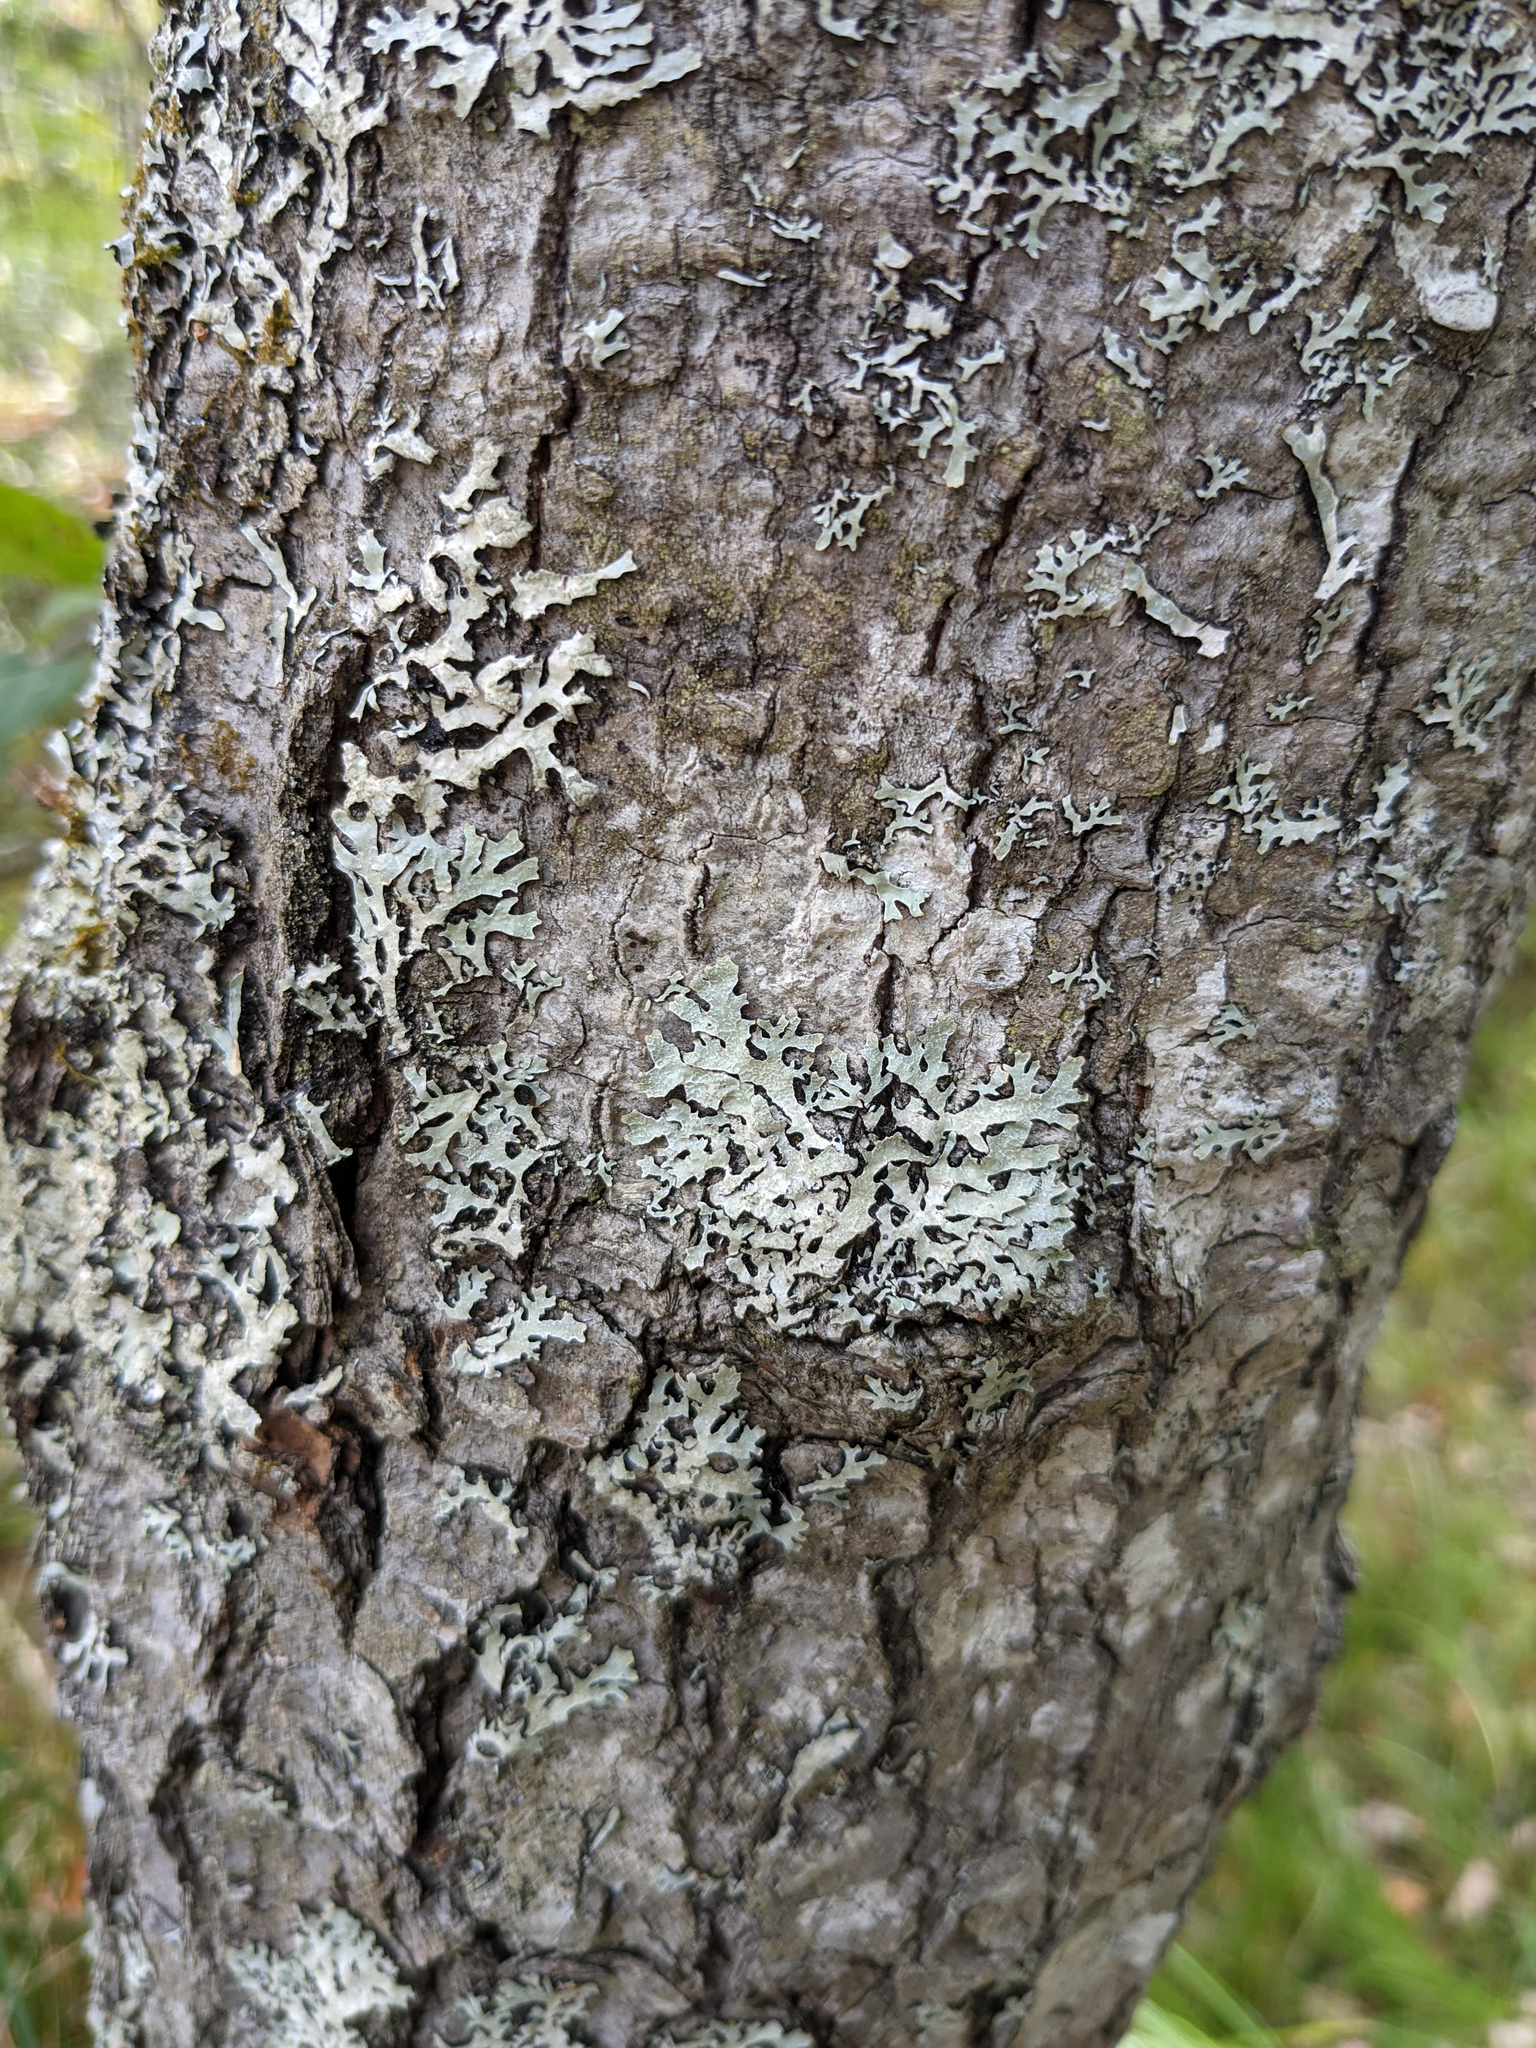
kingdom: Fungi
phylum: Ascomycota
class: Lecanoromycetes
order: Lecanorales
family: Parmeliaceae
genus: Parmelia
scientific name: Parmelia sulcata
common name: Netted shield lichen
